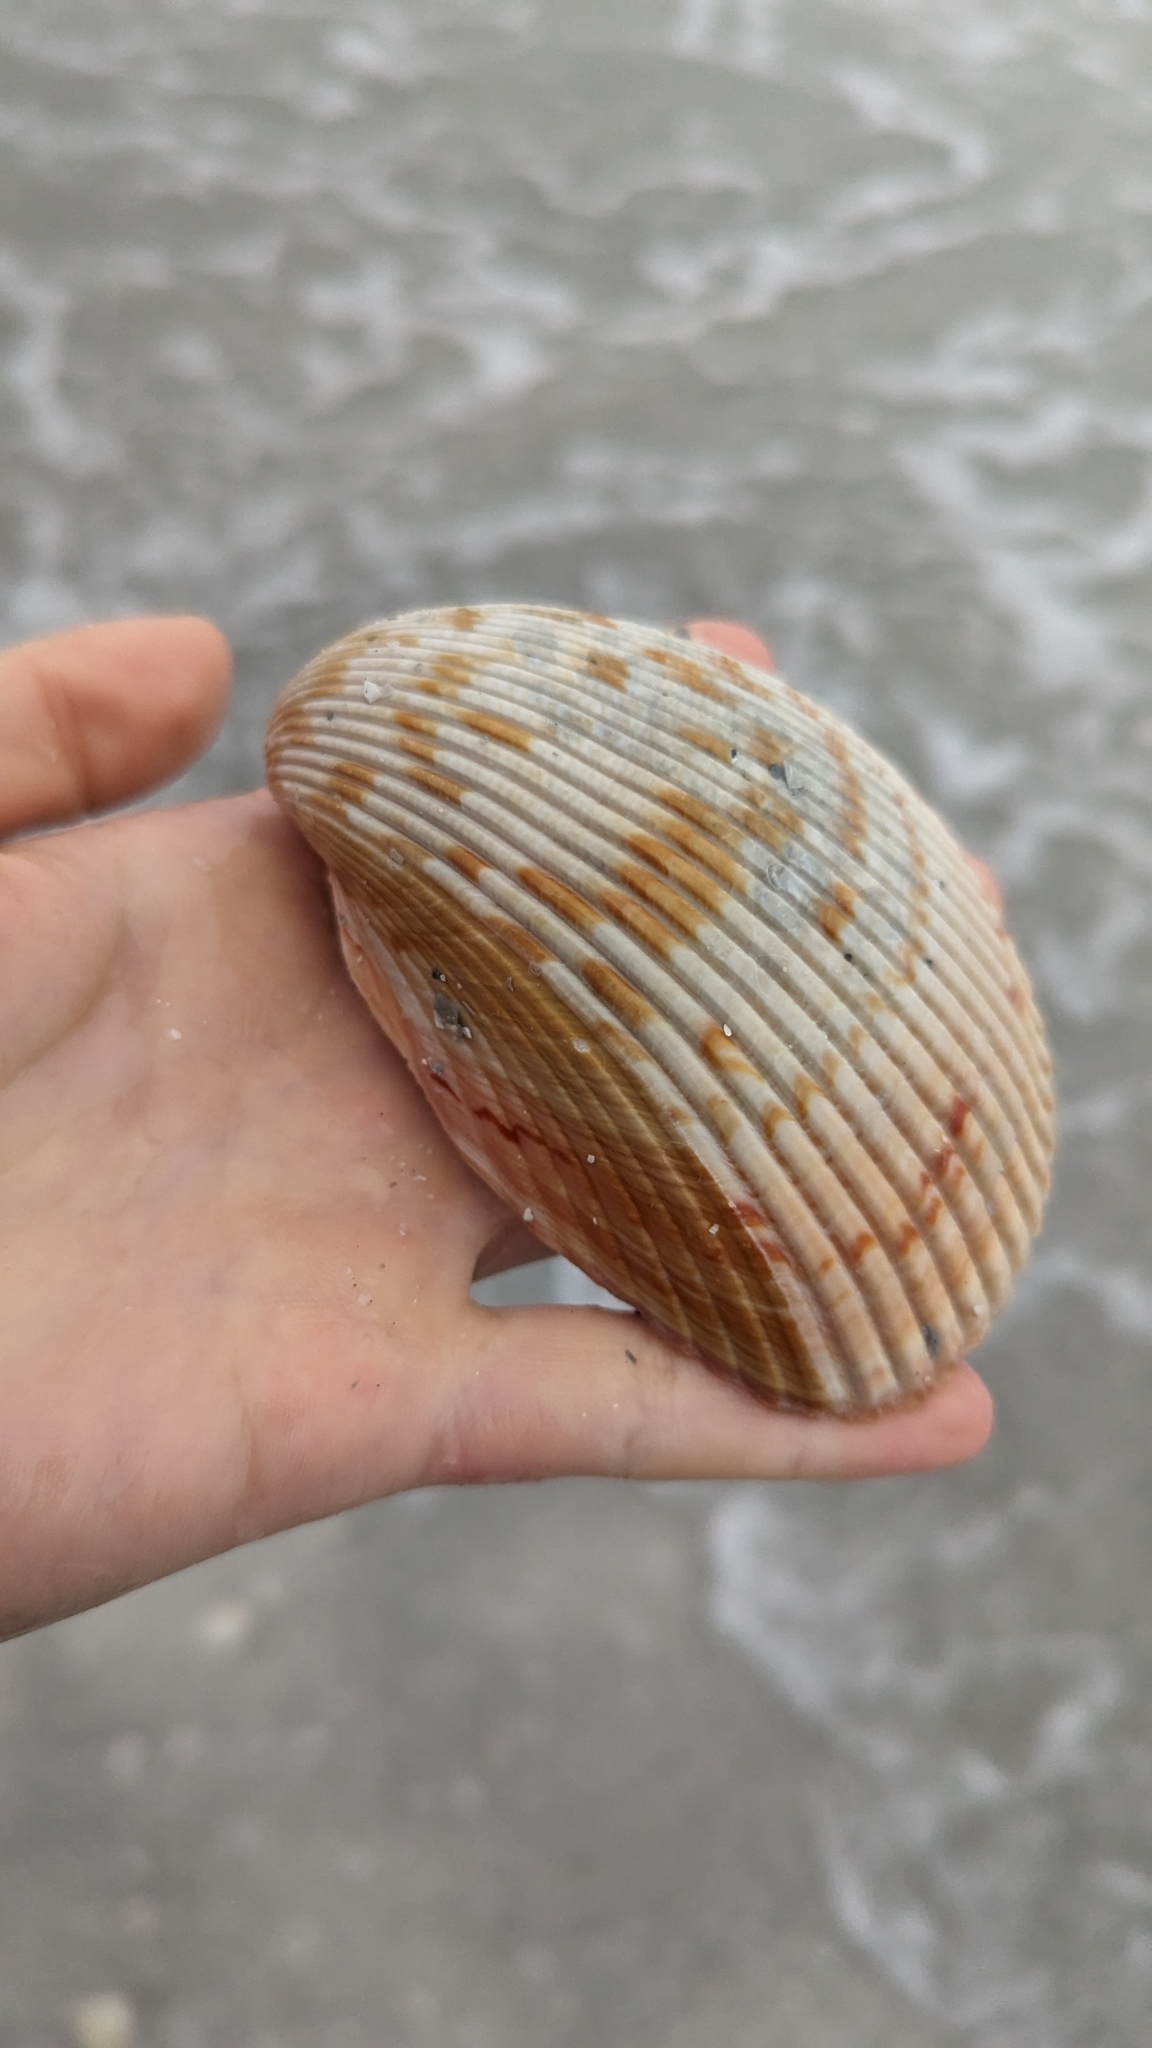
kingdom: Animalia
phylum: Mollusca
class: Bivalvia
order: Cardiida
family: Cardiidae
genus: Dinocardium
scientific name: Dinocardium robustum
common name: Atlantic giant cockle
